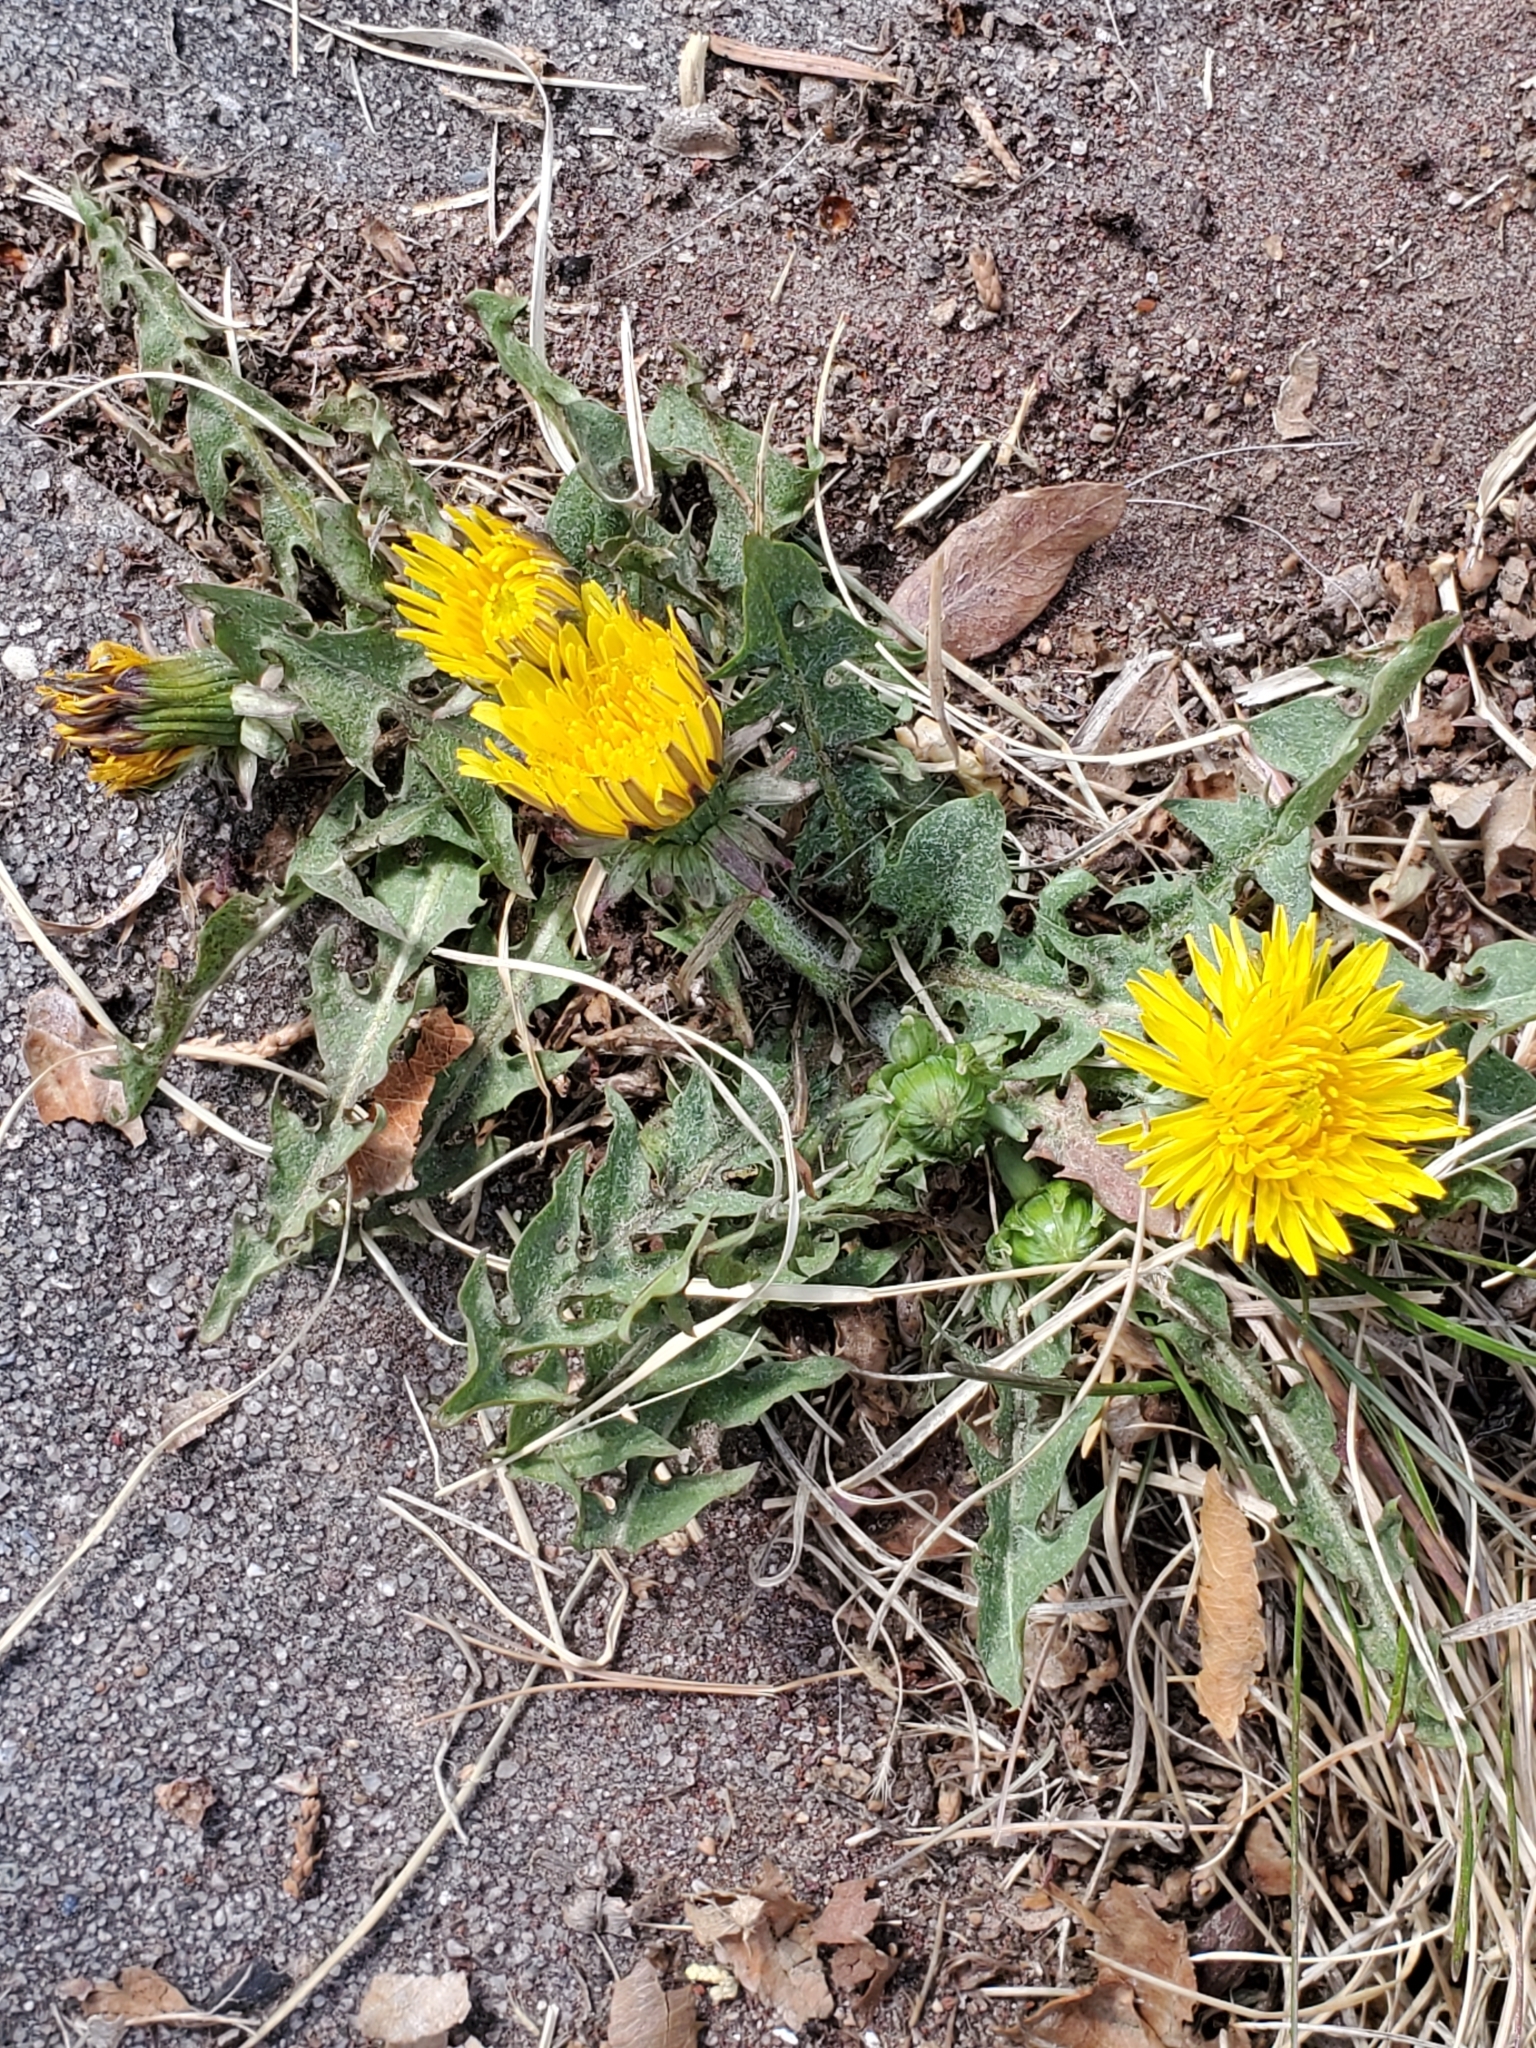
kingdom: Plantae
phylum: Tracheophyta
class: Magnoliopsida
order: Asterales
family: Asteraceae
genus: Taraxacum
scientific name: Taraxacum officinale
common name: Common dandelion
